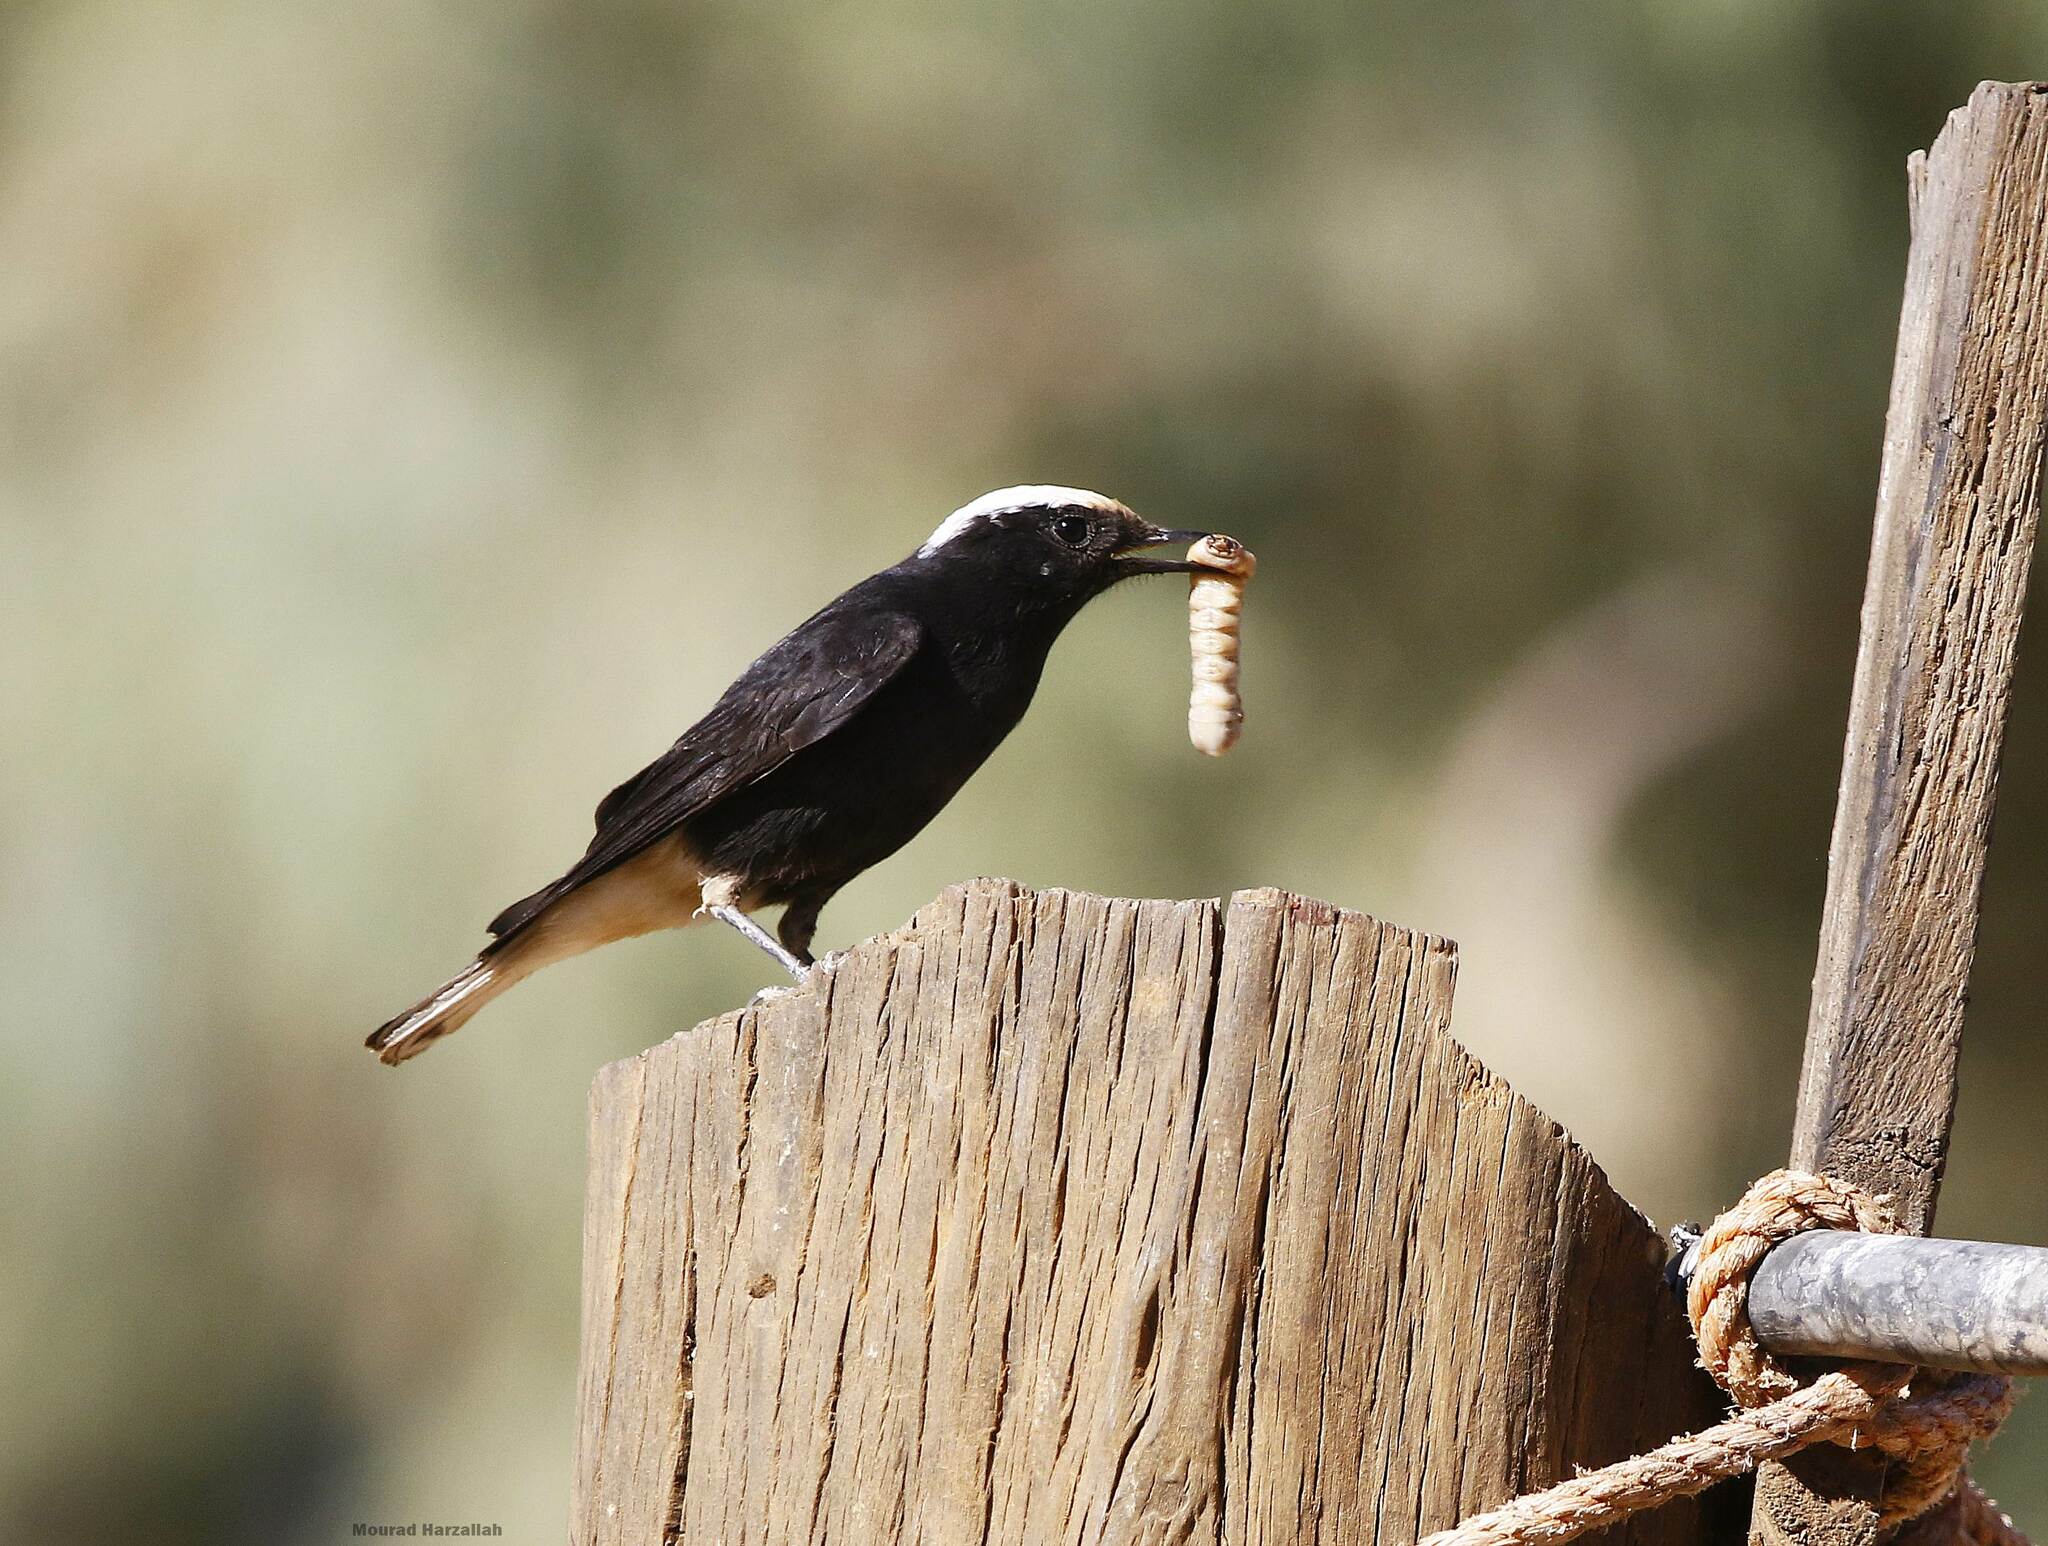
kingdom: Animalia
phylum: Chordata
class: Aves
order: Passeriformes
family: Muscicapidae
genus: Oenanthe
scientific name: Oenanthe leucopyga
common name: White-crowned wheatear
